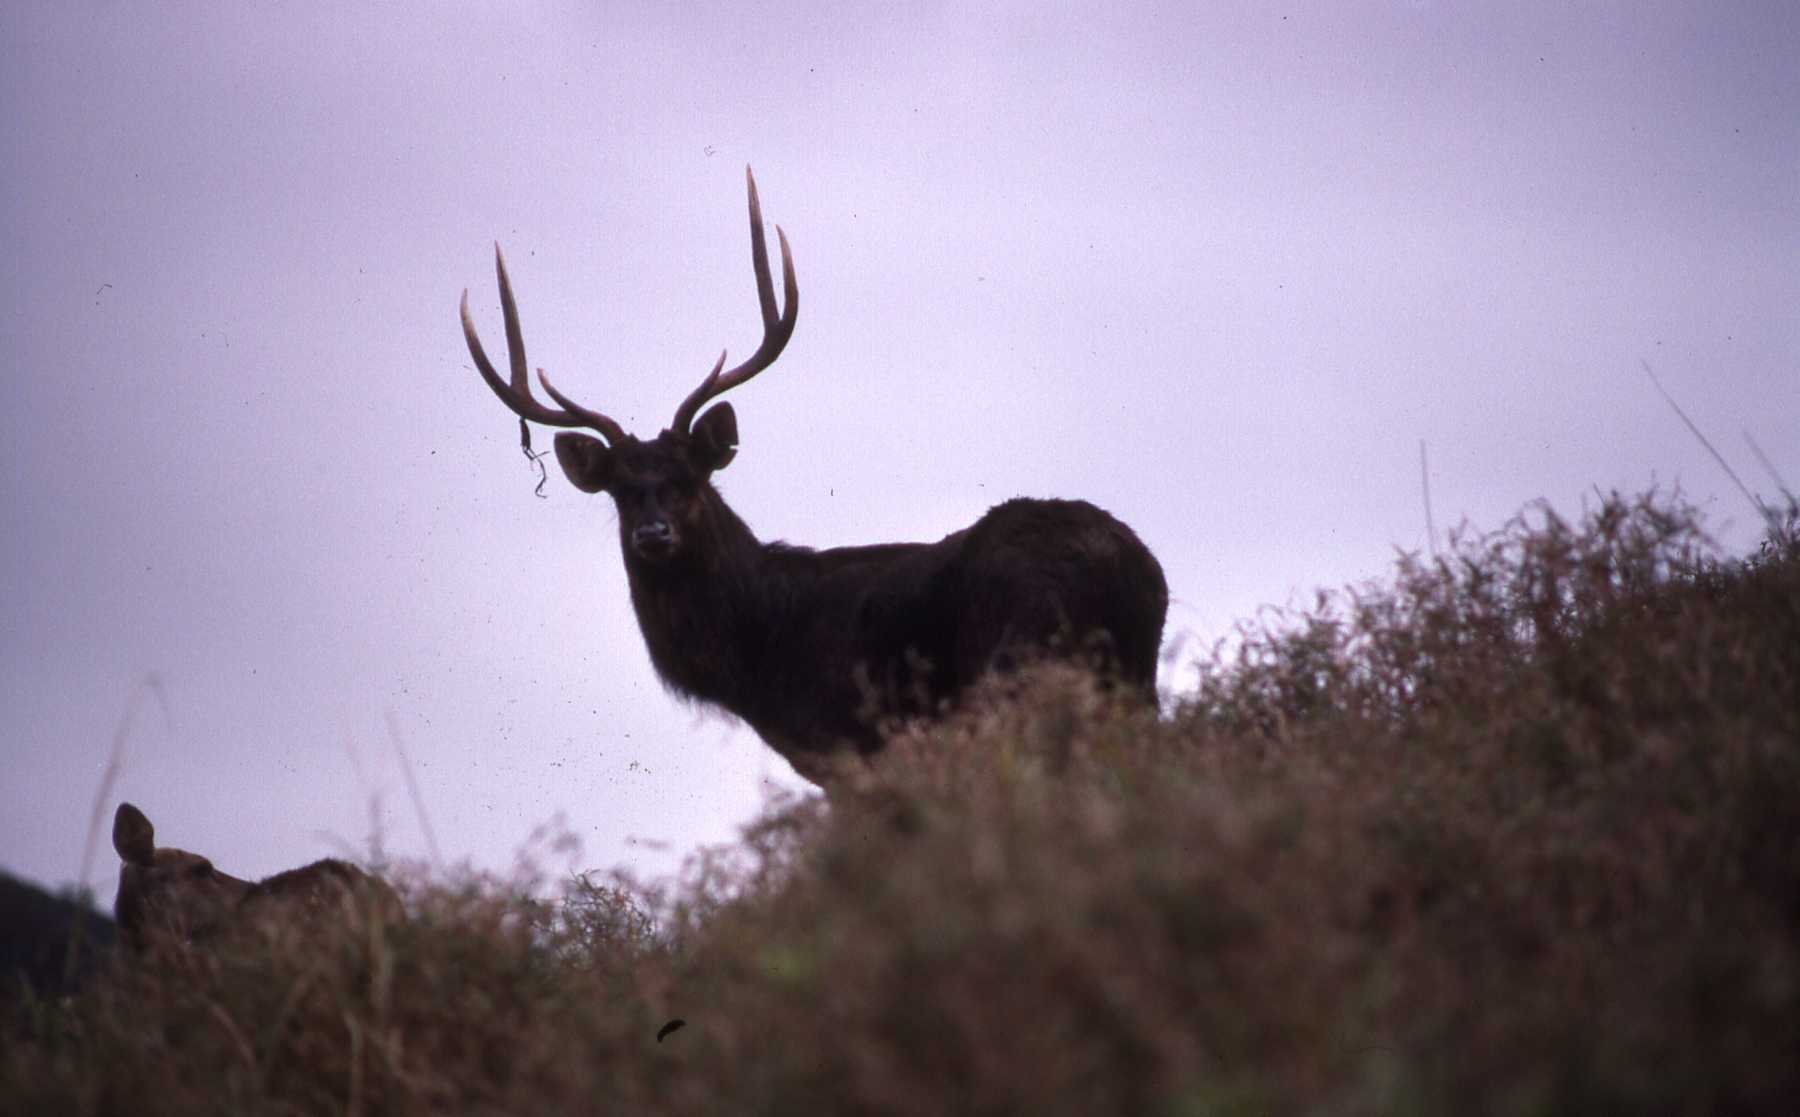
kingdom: Animalia
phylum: Chordata
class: Mammalia
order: Artiodactyla
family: Cervidae
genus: Rusa
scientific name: Rusa timorensis
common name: Javan rusa
